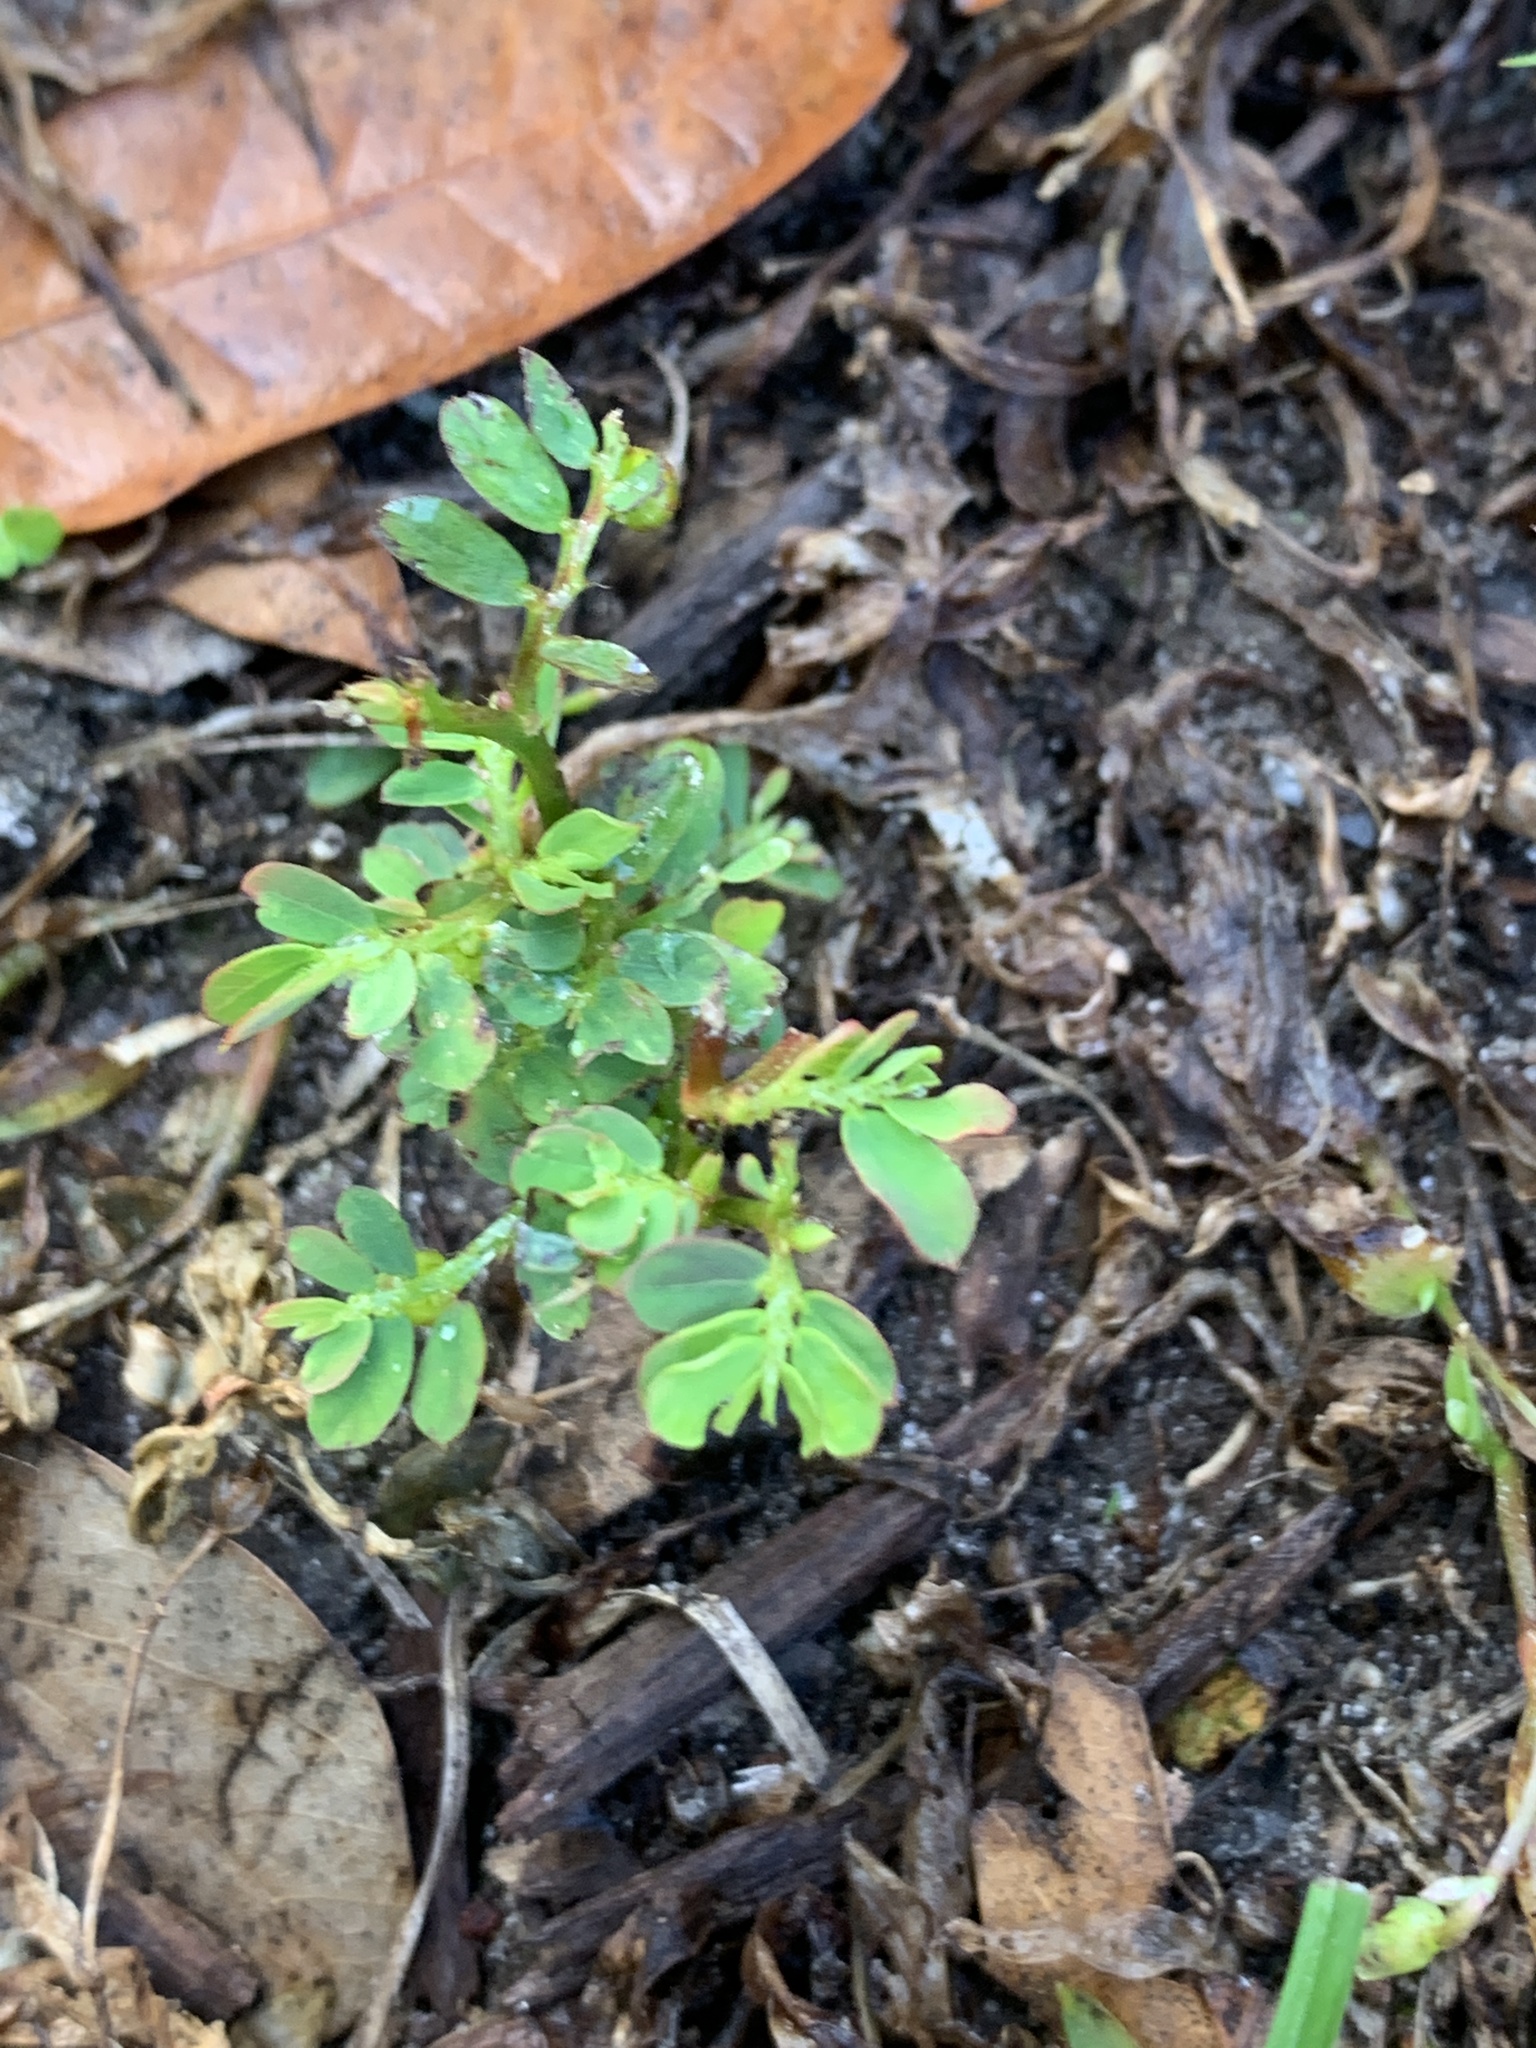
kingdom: Plantae
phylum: Tracheophyta
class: Magnoliopsida
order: Malpighiales
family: Phyllanthaceae
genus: Phyllanthus
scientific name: Phyllanthus urinaria
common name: Chamber bitter
